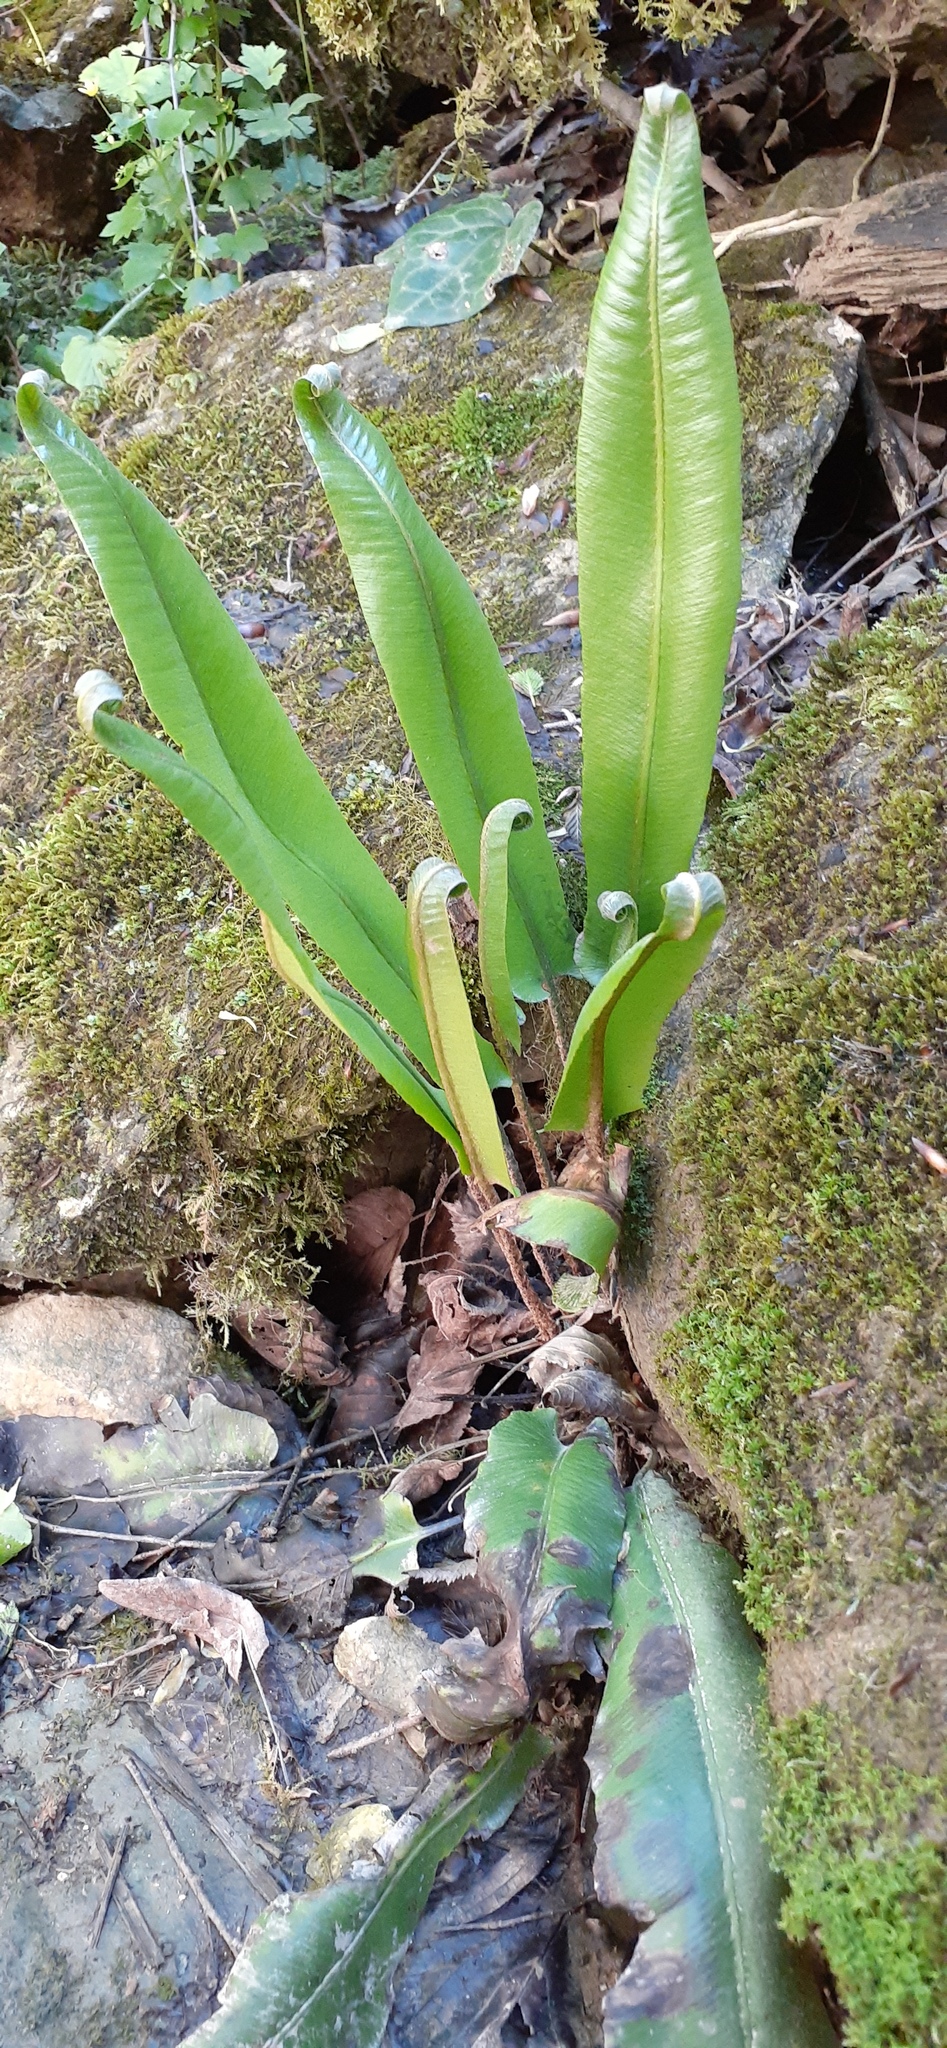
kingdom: Plantae
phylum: Tracheophyta
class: Polypodiopsida
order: Polypodiales
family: Aspleniaceae
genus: Asplenium
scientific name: Asplenium scolopendrium
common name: Hart's-tongue fern
